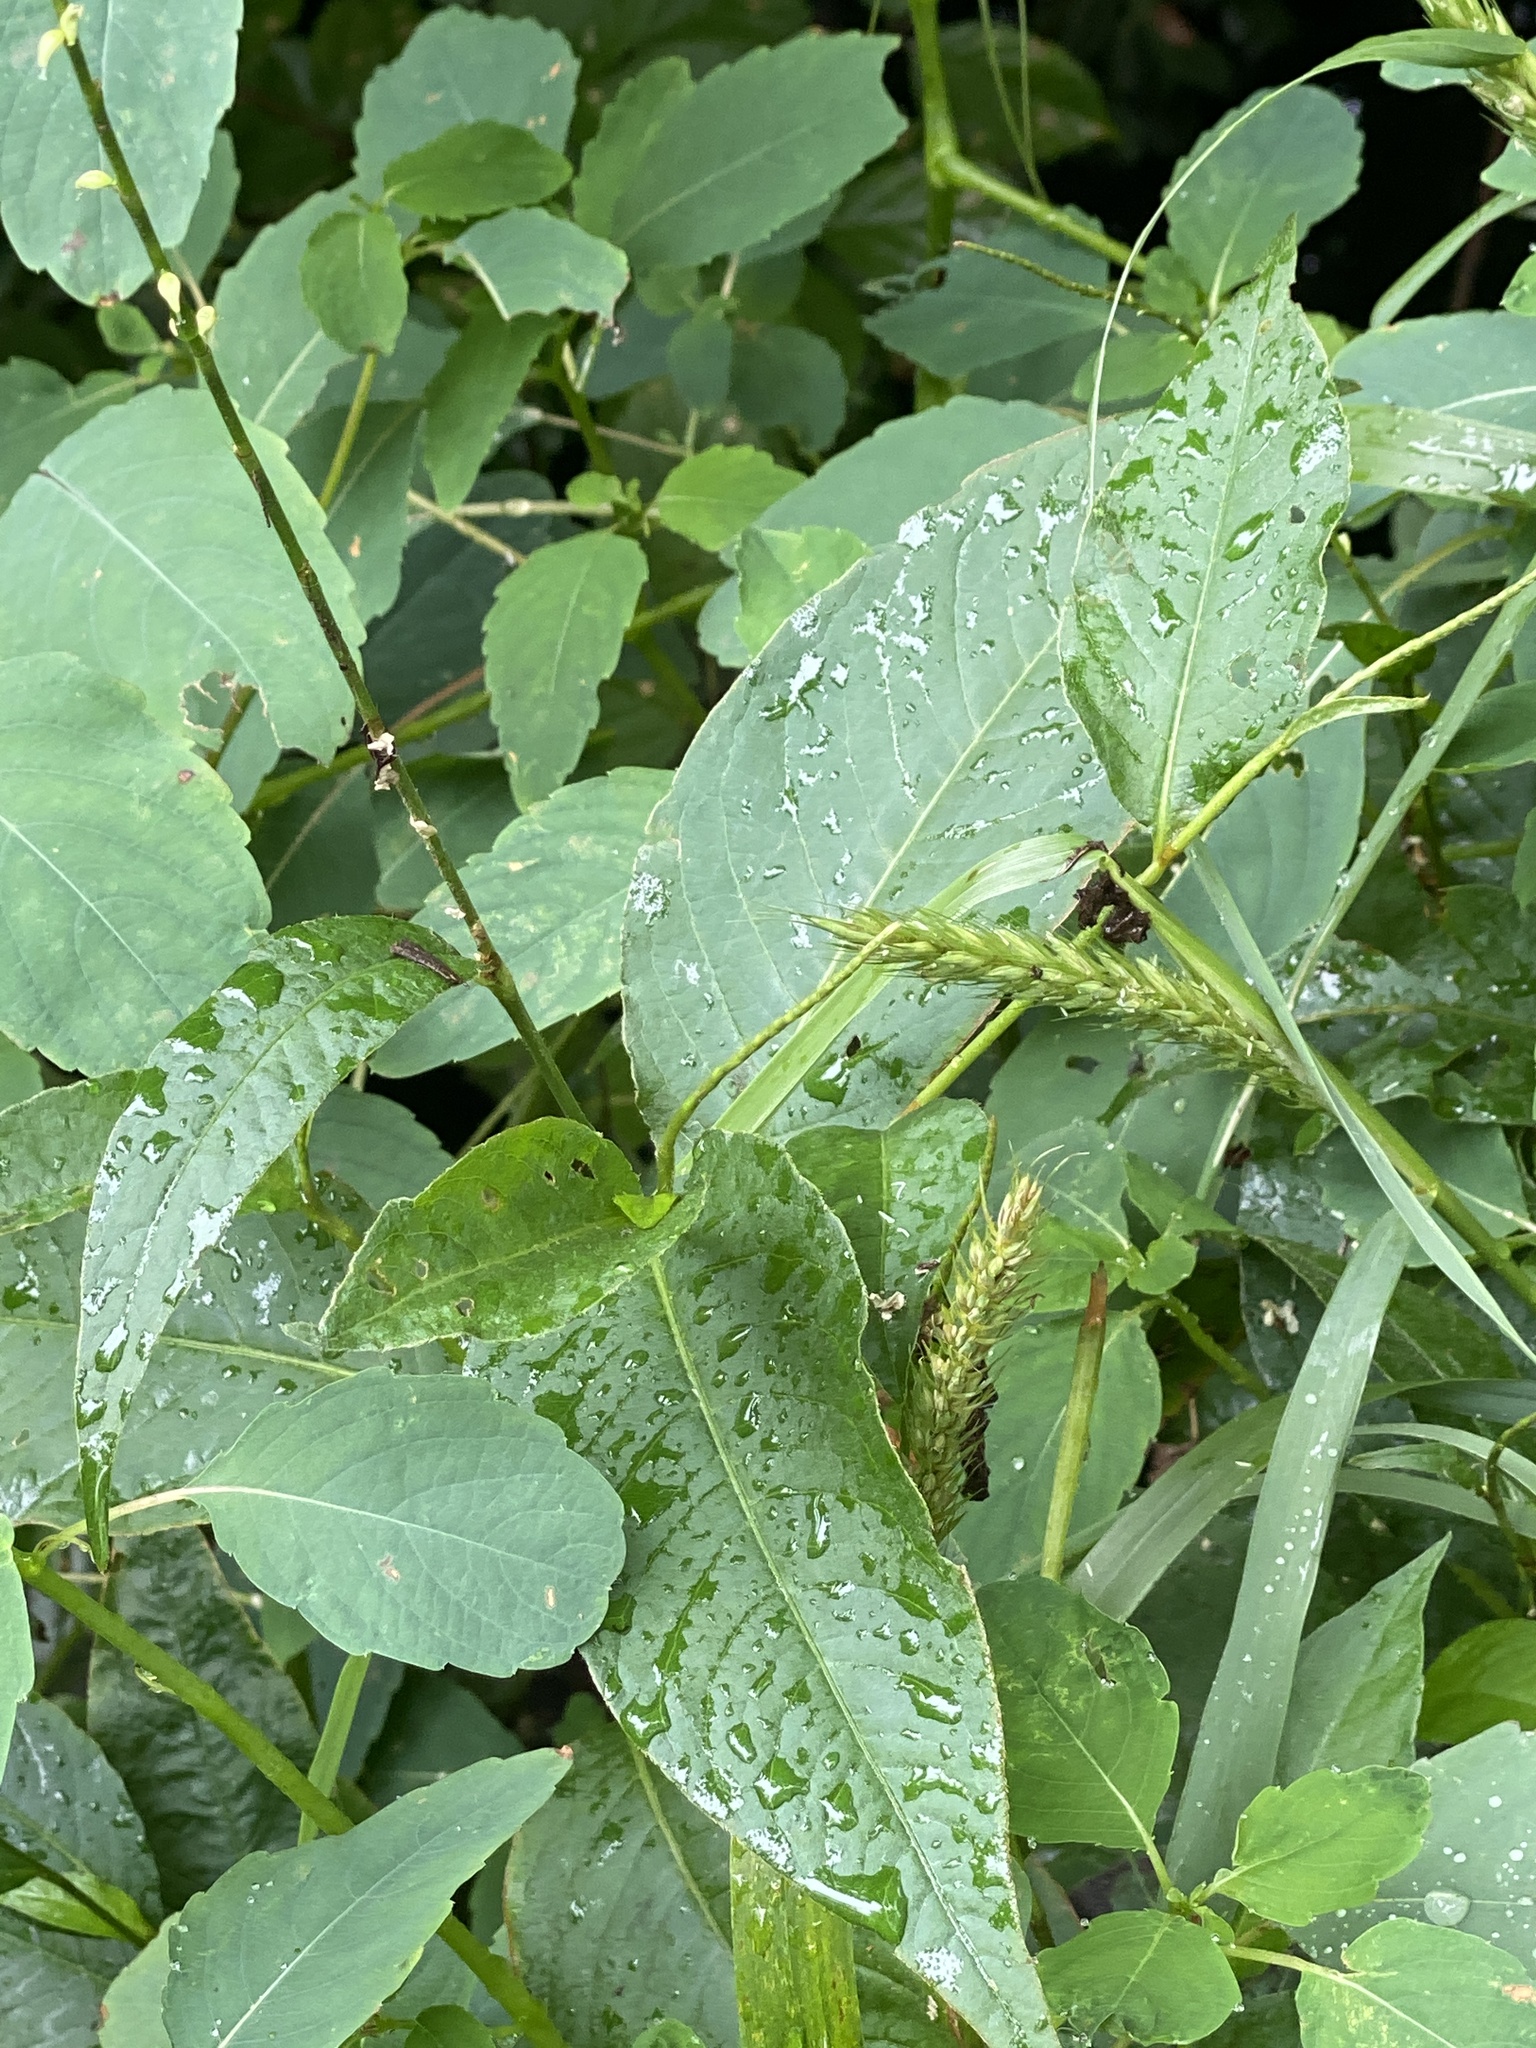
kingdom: Plantae
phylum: Tracheophyta
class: Magnoliopsida
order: Caryophyllales
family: Polygonaceae
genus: Persicaria
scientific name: Persicaria virginiana
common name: Jumpseed
